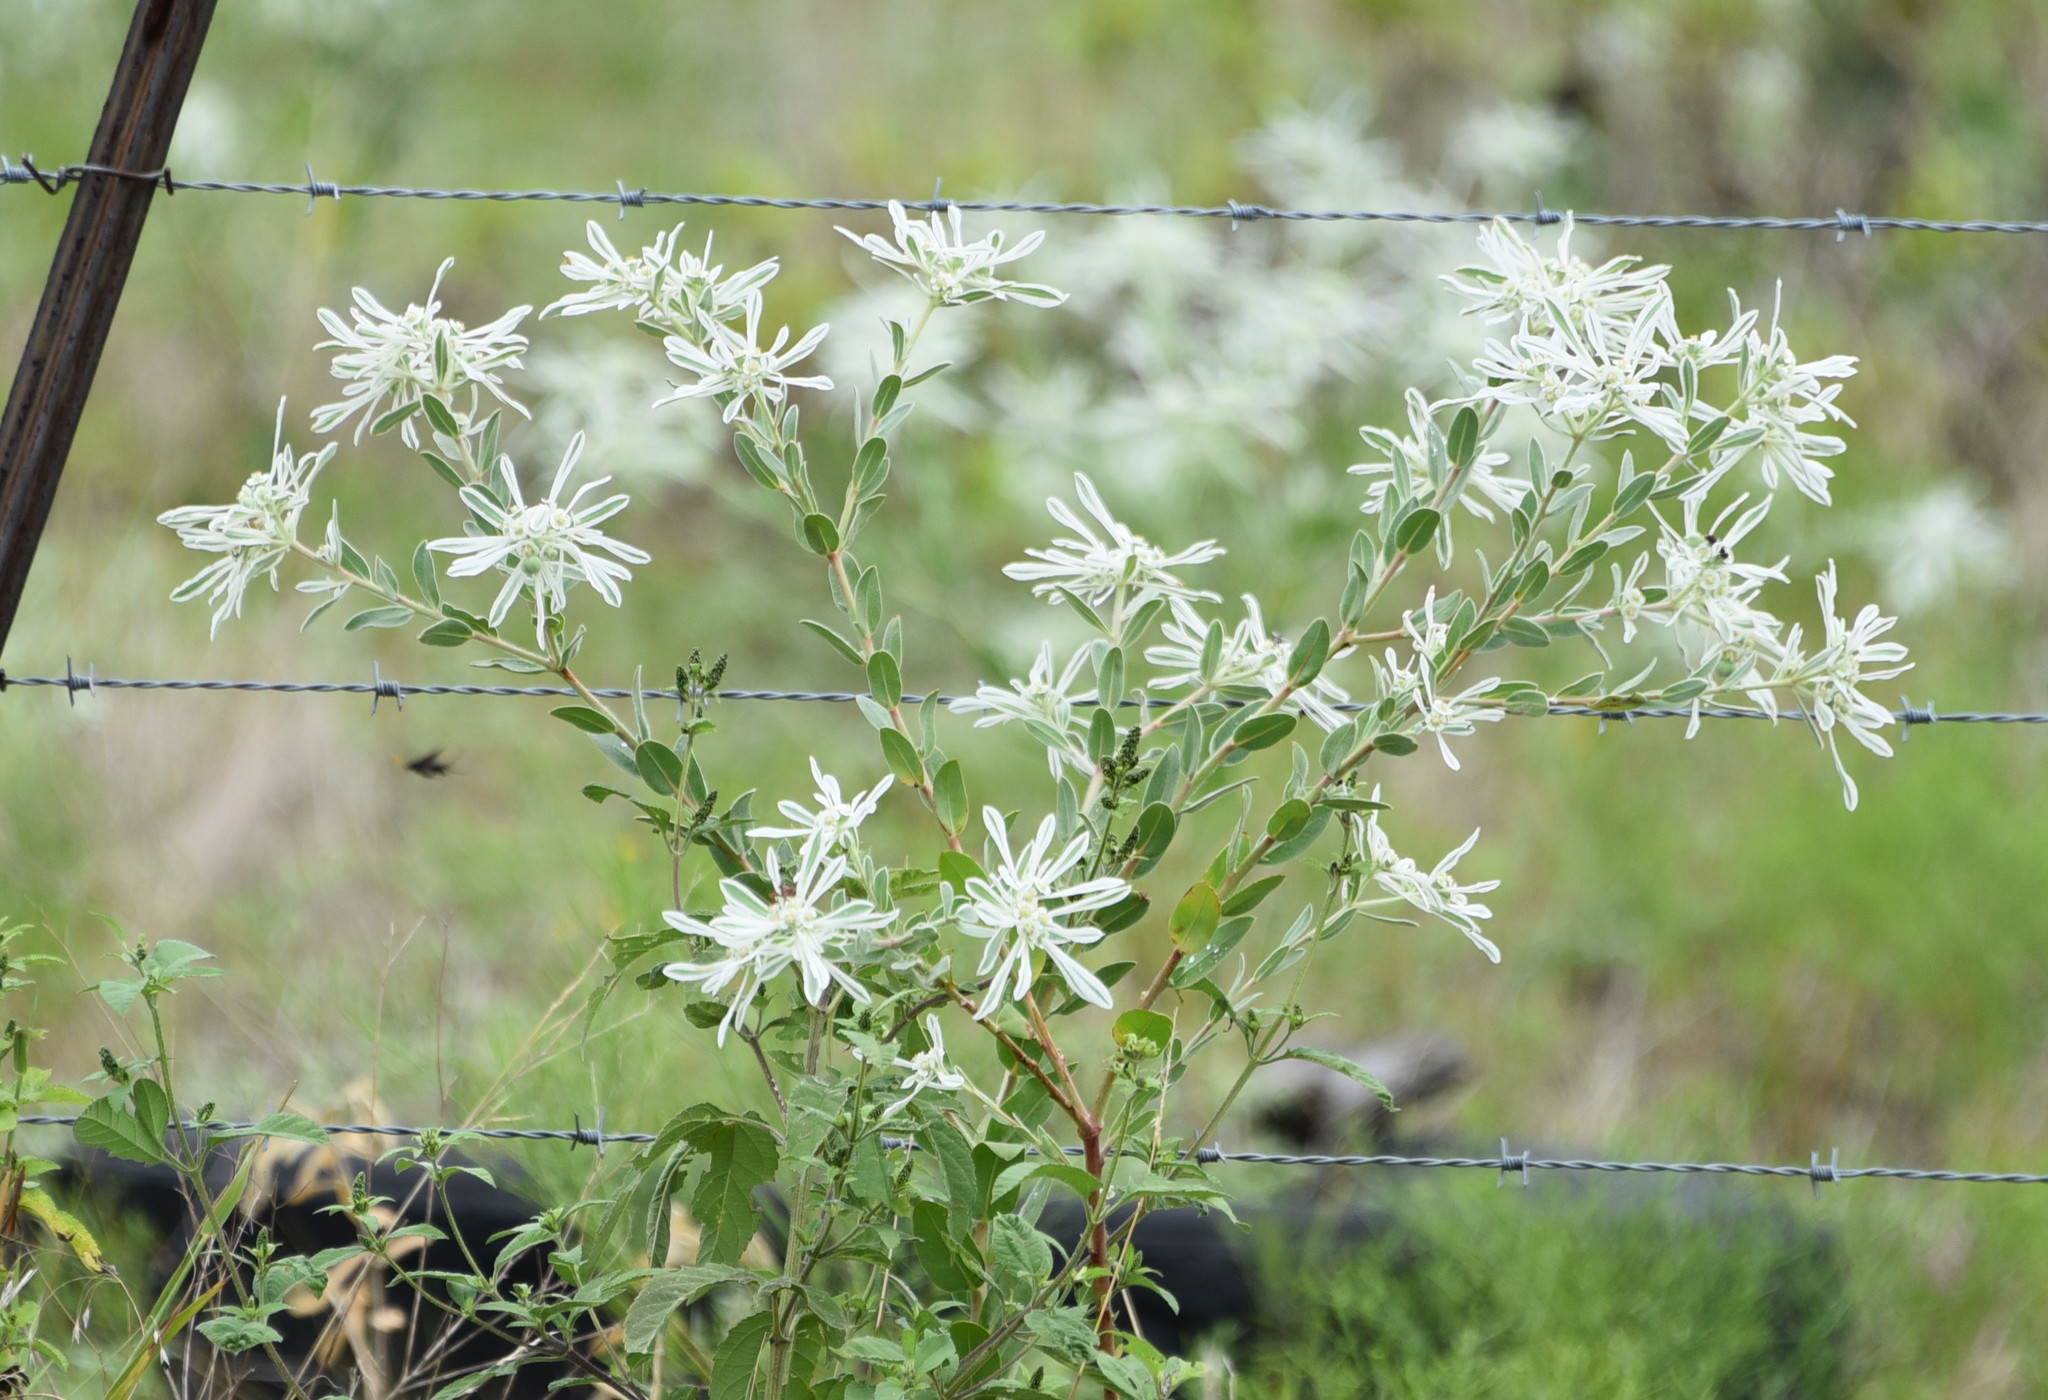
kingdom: Plantae
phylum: Tracheophyta
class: Magnoliopsida
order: Malpighiales
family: Euphorbiaceae
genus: Euphorbia
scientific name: Euphorbia bicolor
